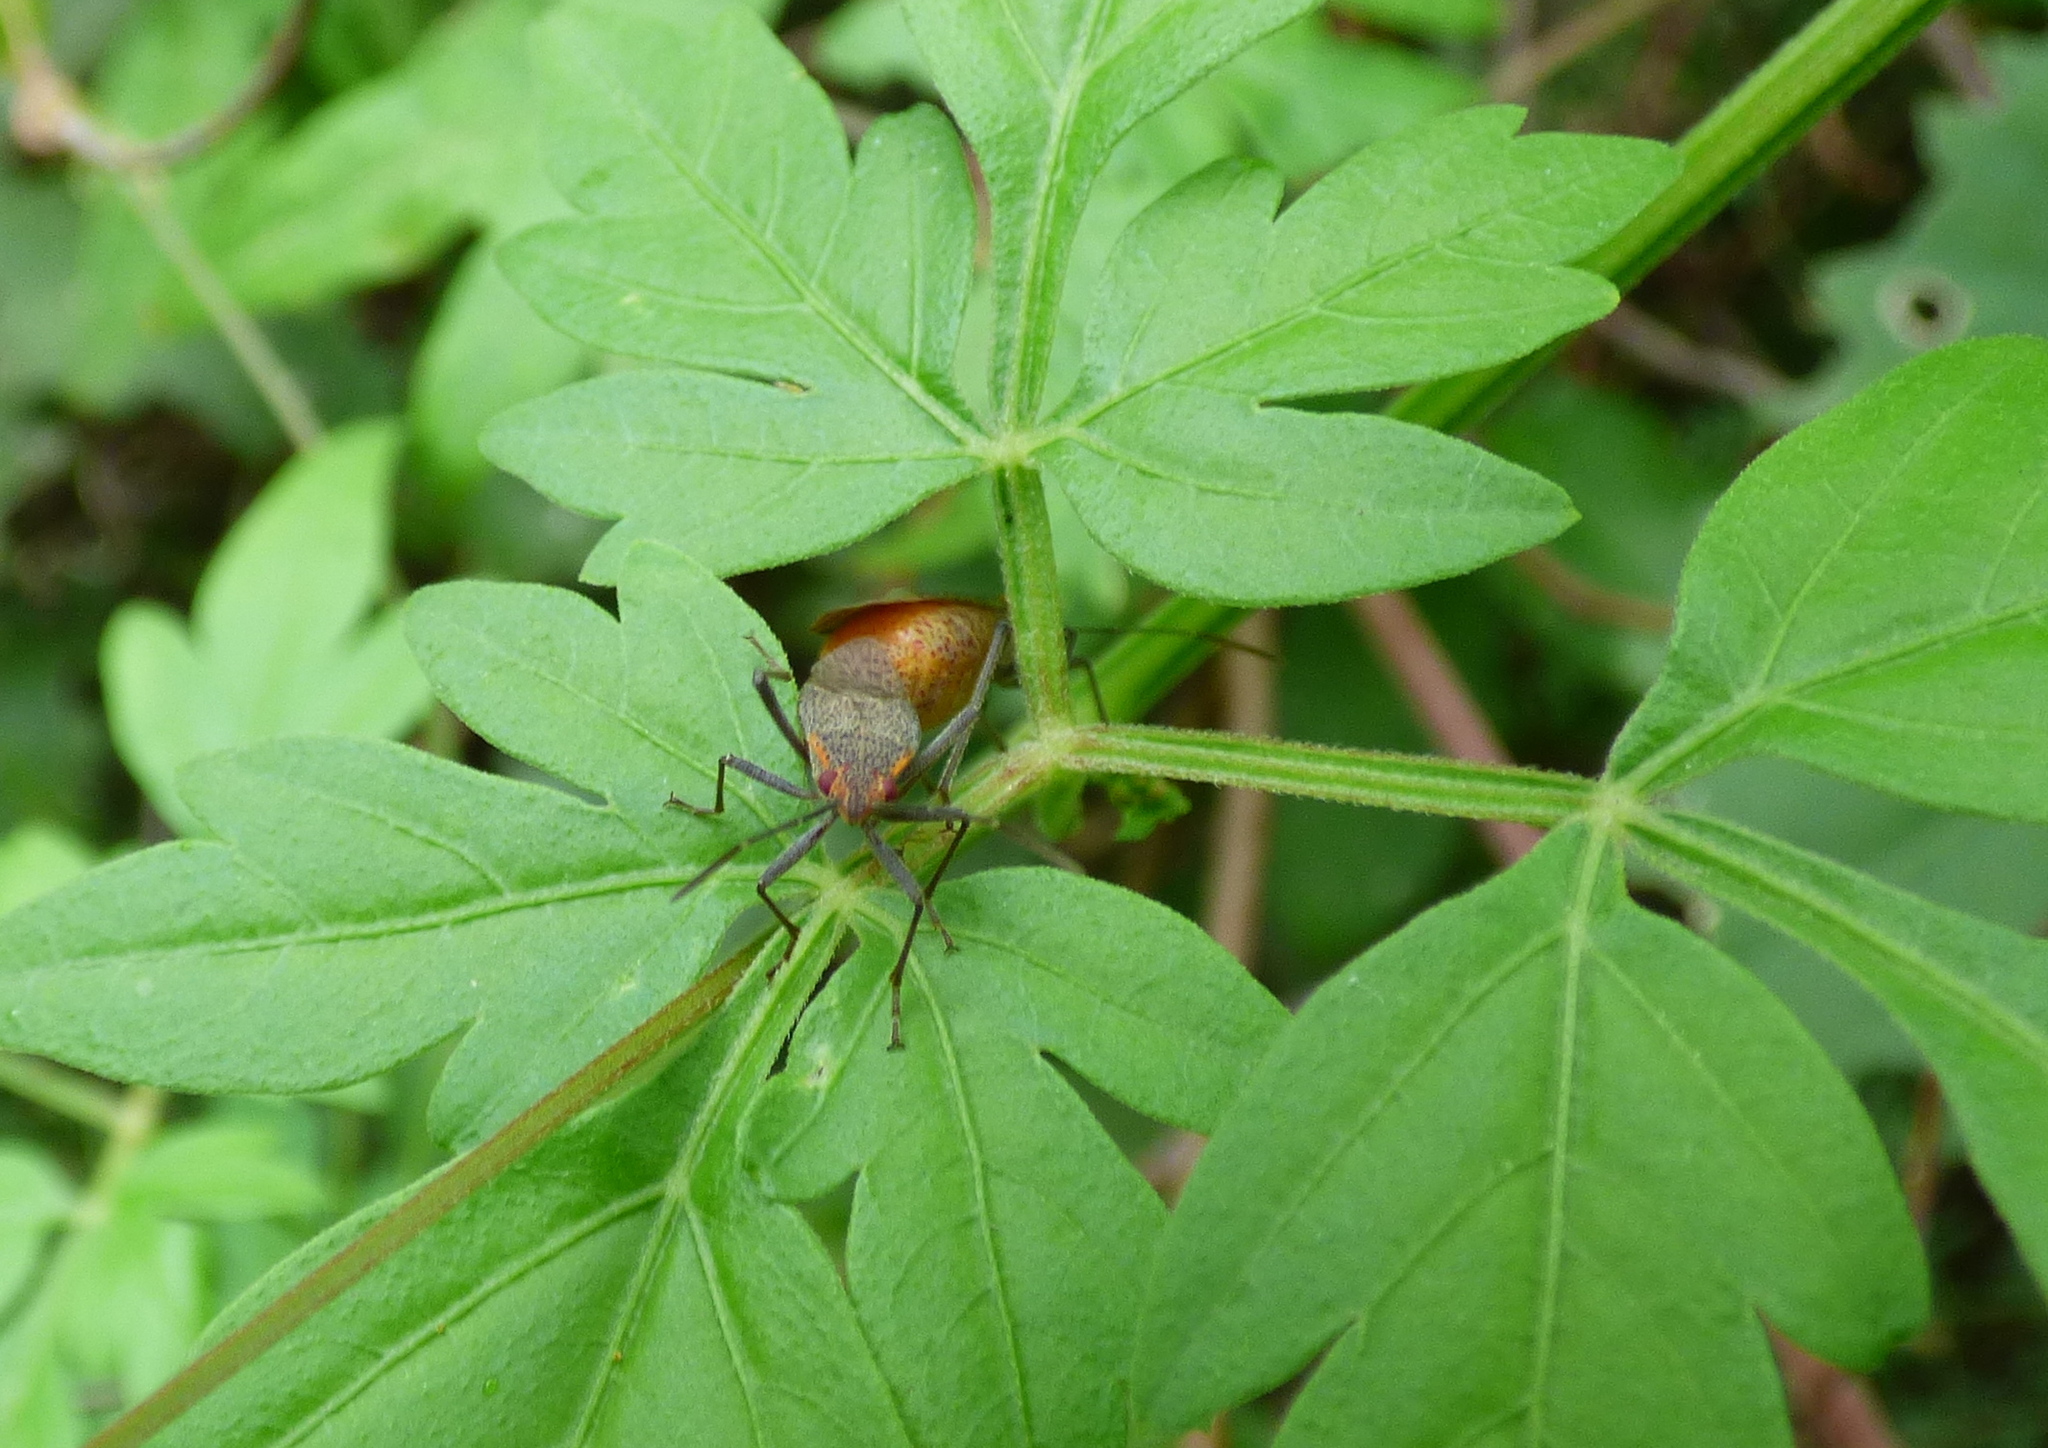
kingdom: Animalia
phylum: Arthropoda
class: Insecta
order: Hemiptera
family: Rhopalidae
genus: Jadera
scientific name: Jadera coturnix
